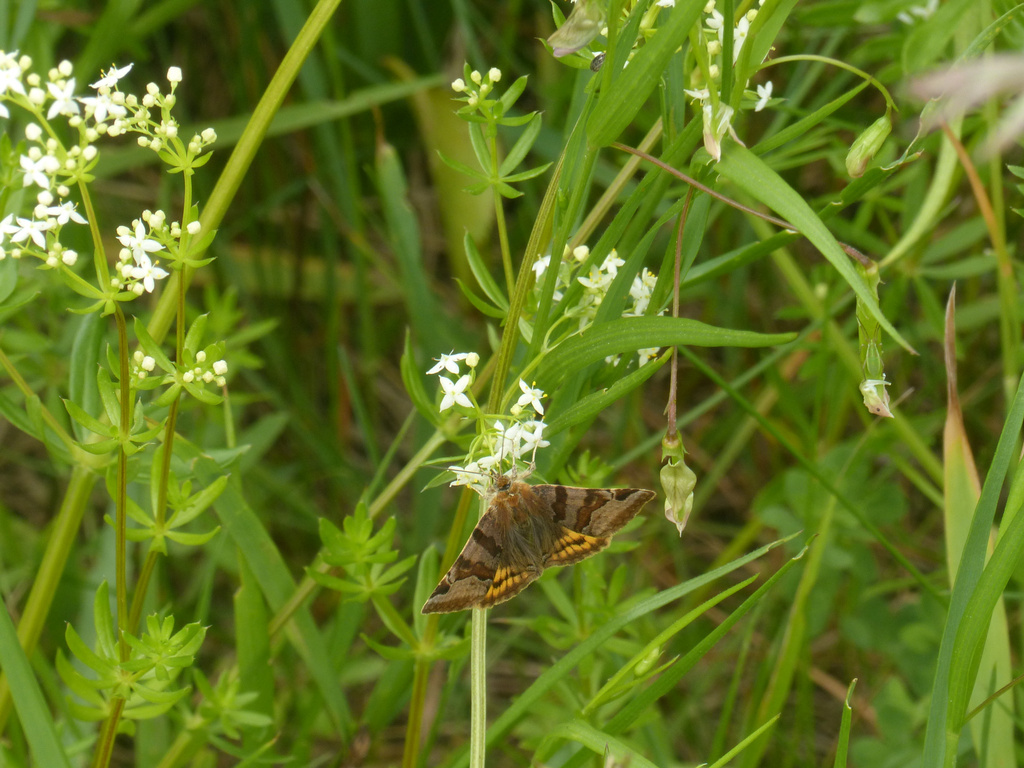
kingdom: Animalia
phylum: Arthropoda
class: Insecta
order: Lepidoptera
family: Erebidae
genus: Euclidia
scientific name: Euclidia glyphica
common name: Burnet companion
